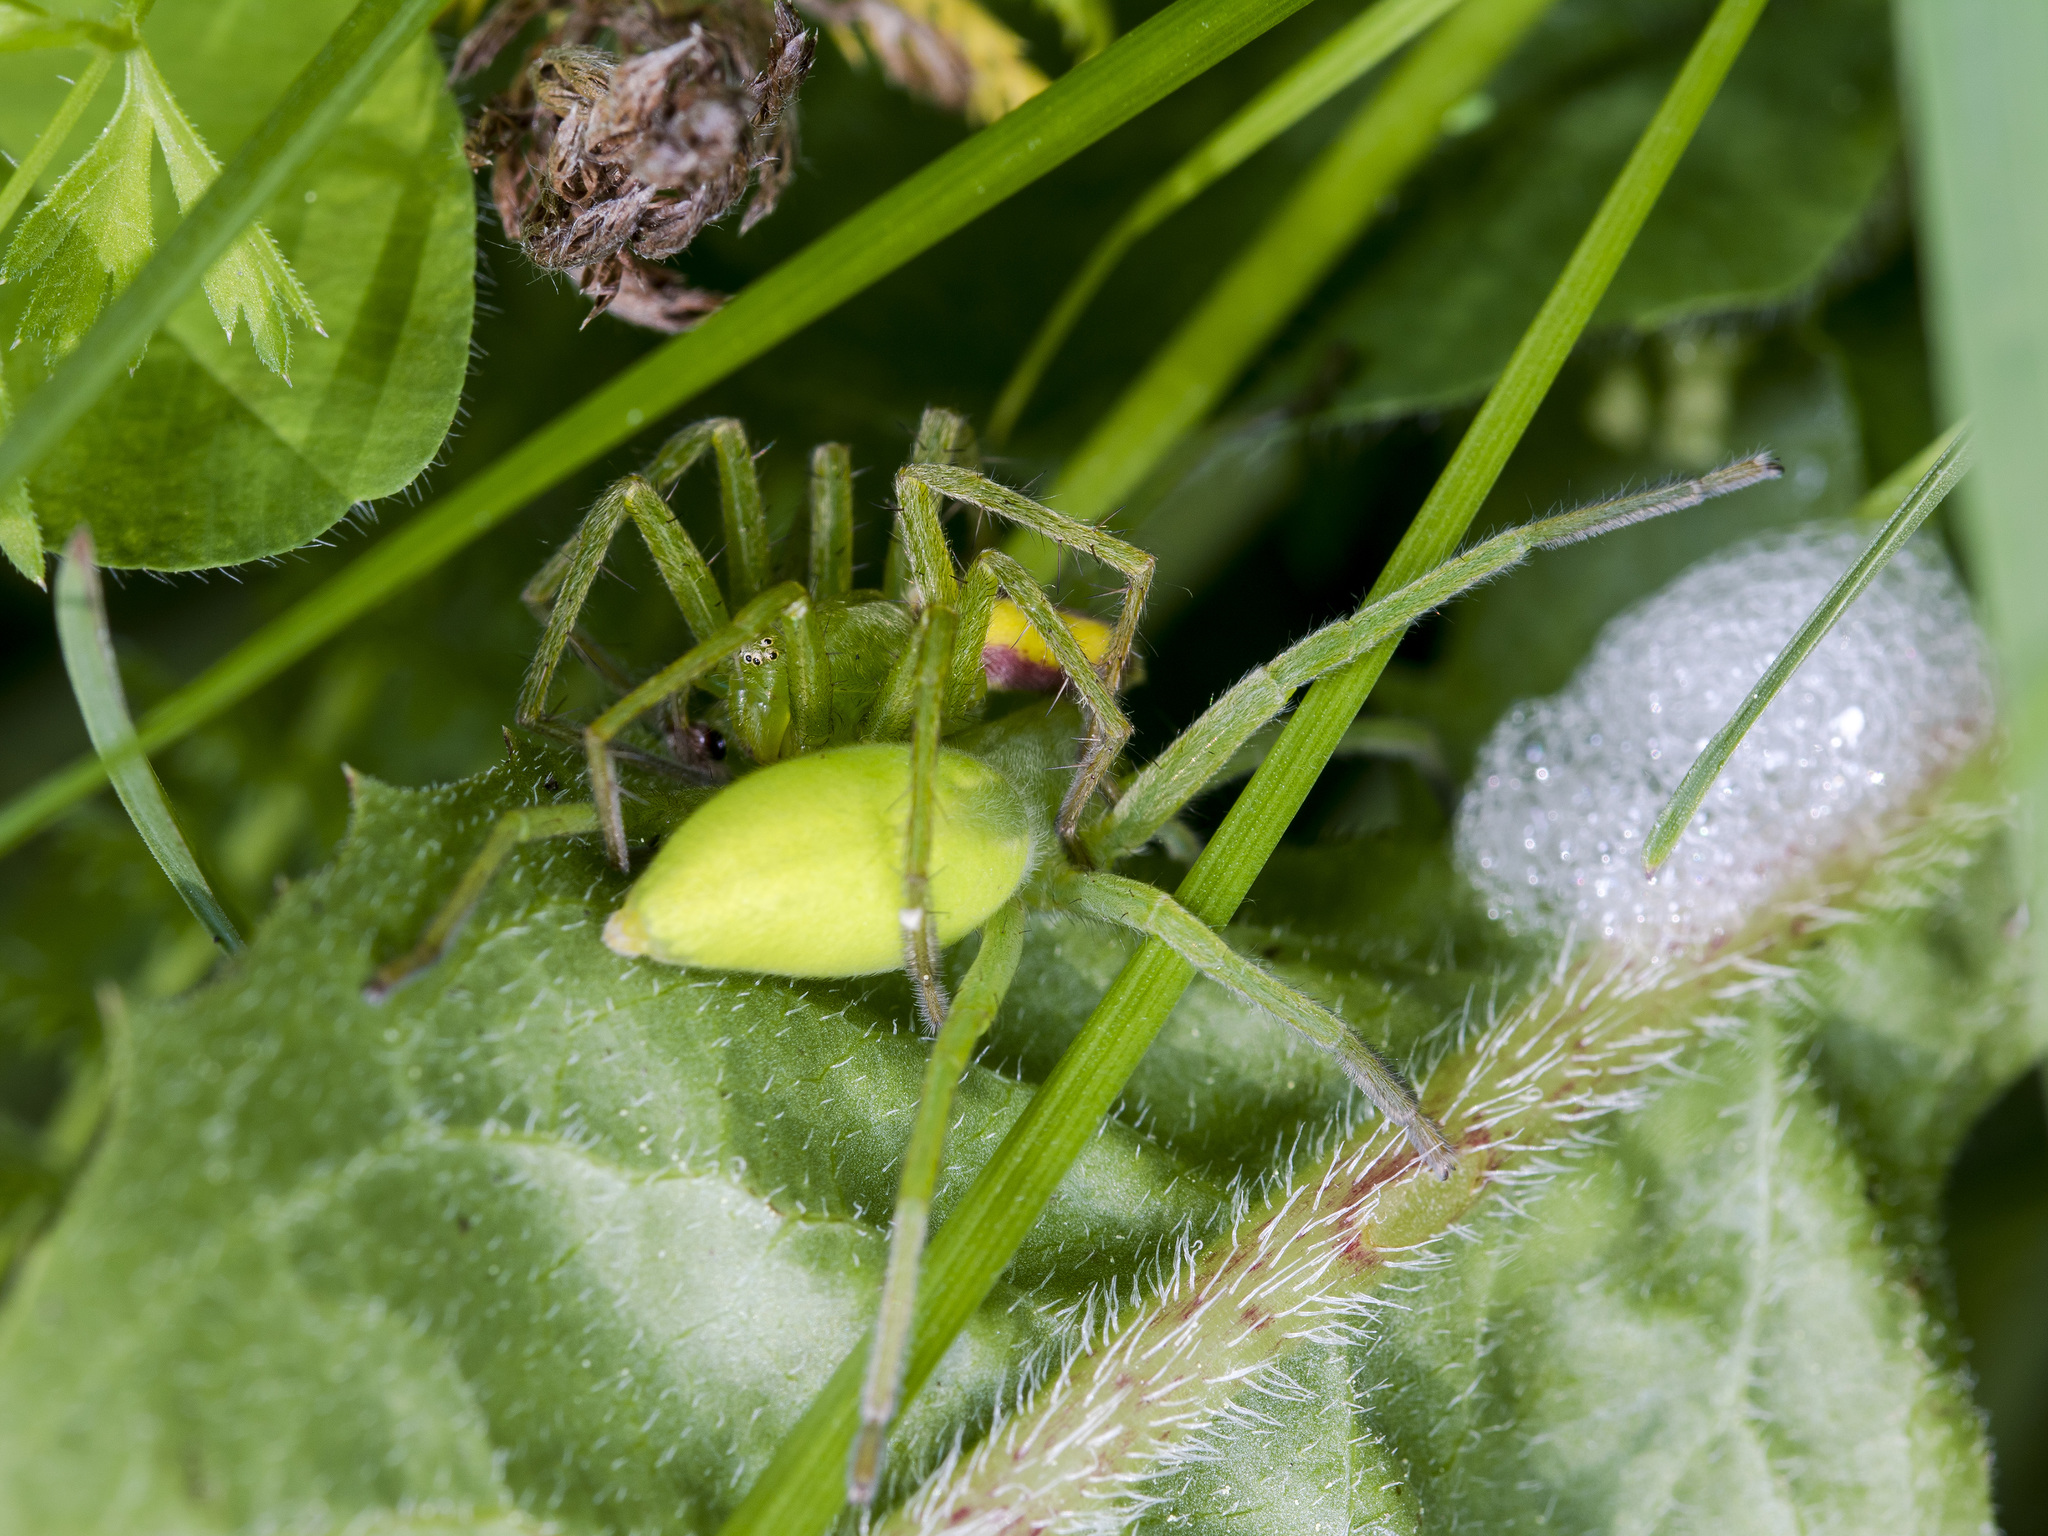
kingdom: Animalia
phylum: Arthropoda
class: Arachnida
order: Araneae
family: Sparassidae
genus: Micrommata
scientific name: Micrommata virescens
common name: Green spider
